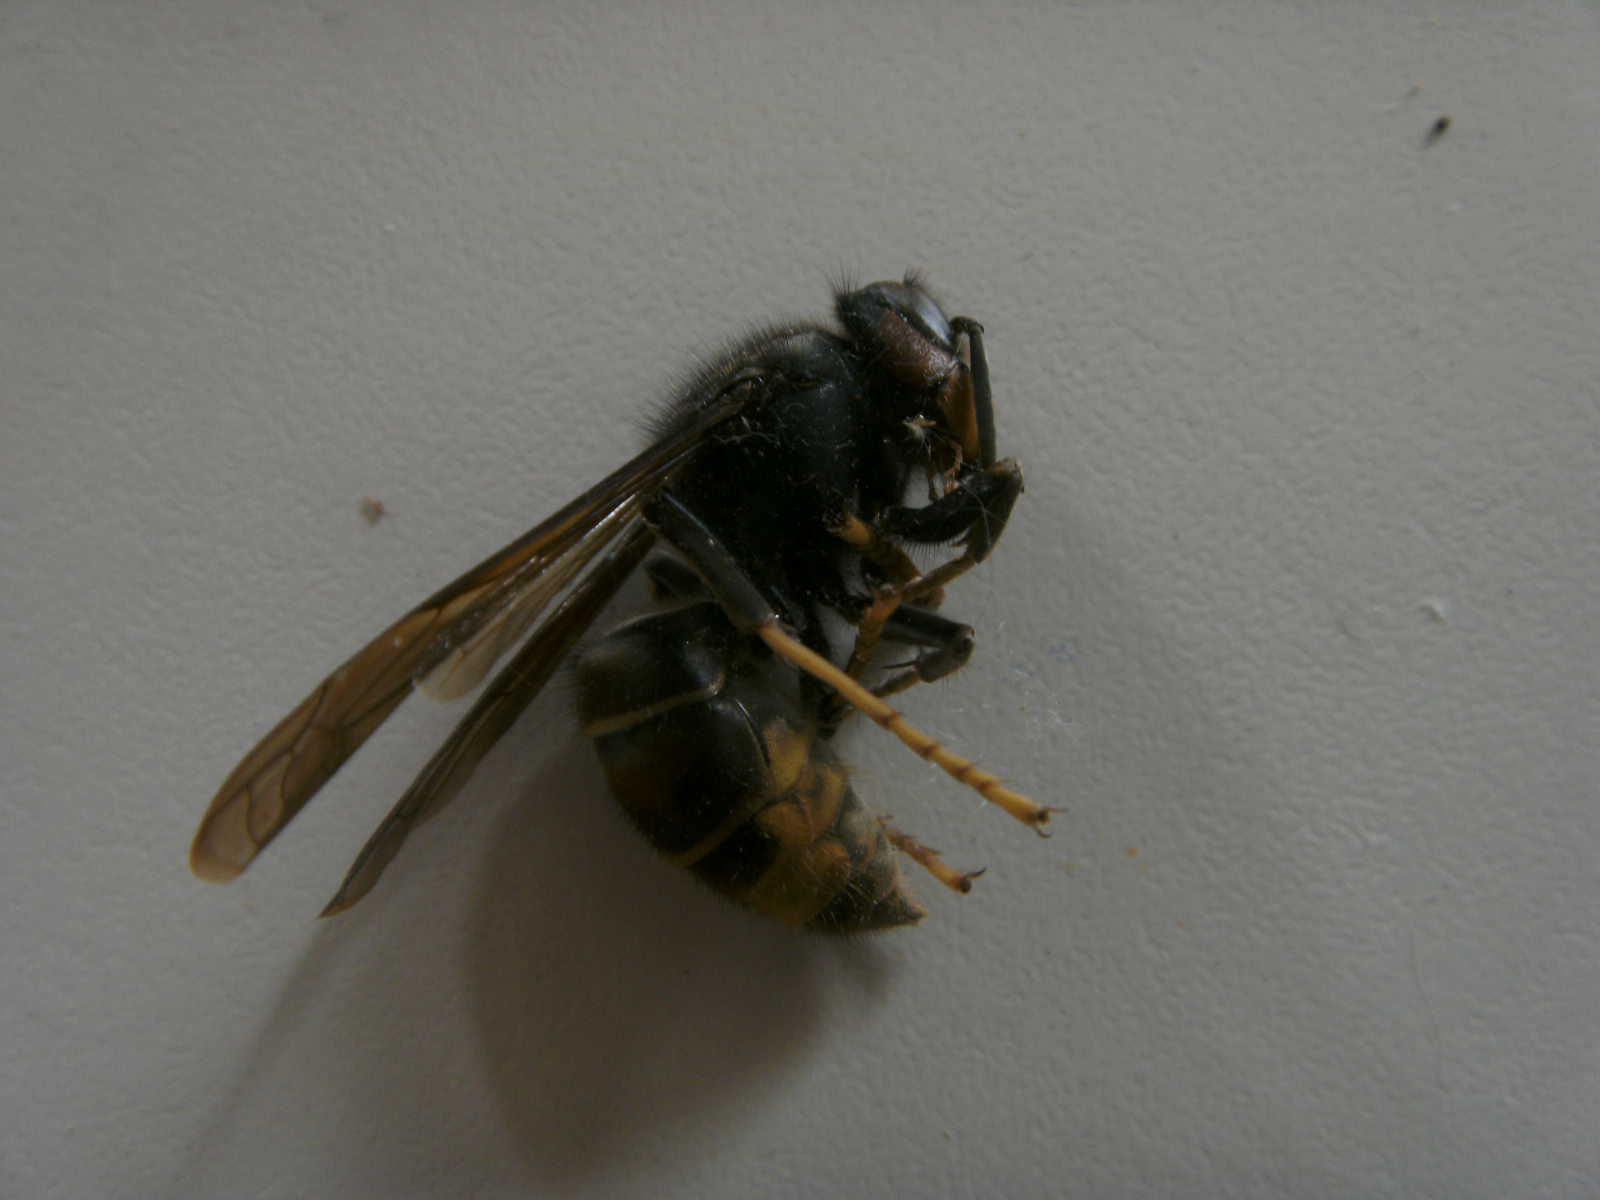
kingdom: Animalia
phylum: Arthropoda
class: Insecta
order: Hymenoptera
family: Vespidae
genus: Vespa
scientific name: Vespa velutina
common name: Asian hornet
